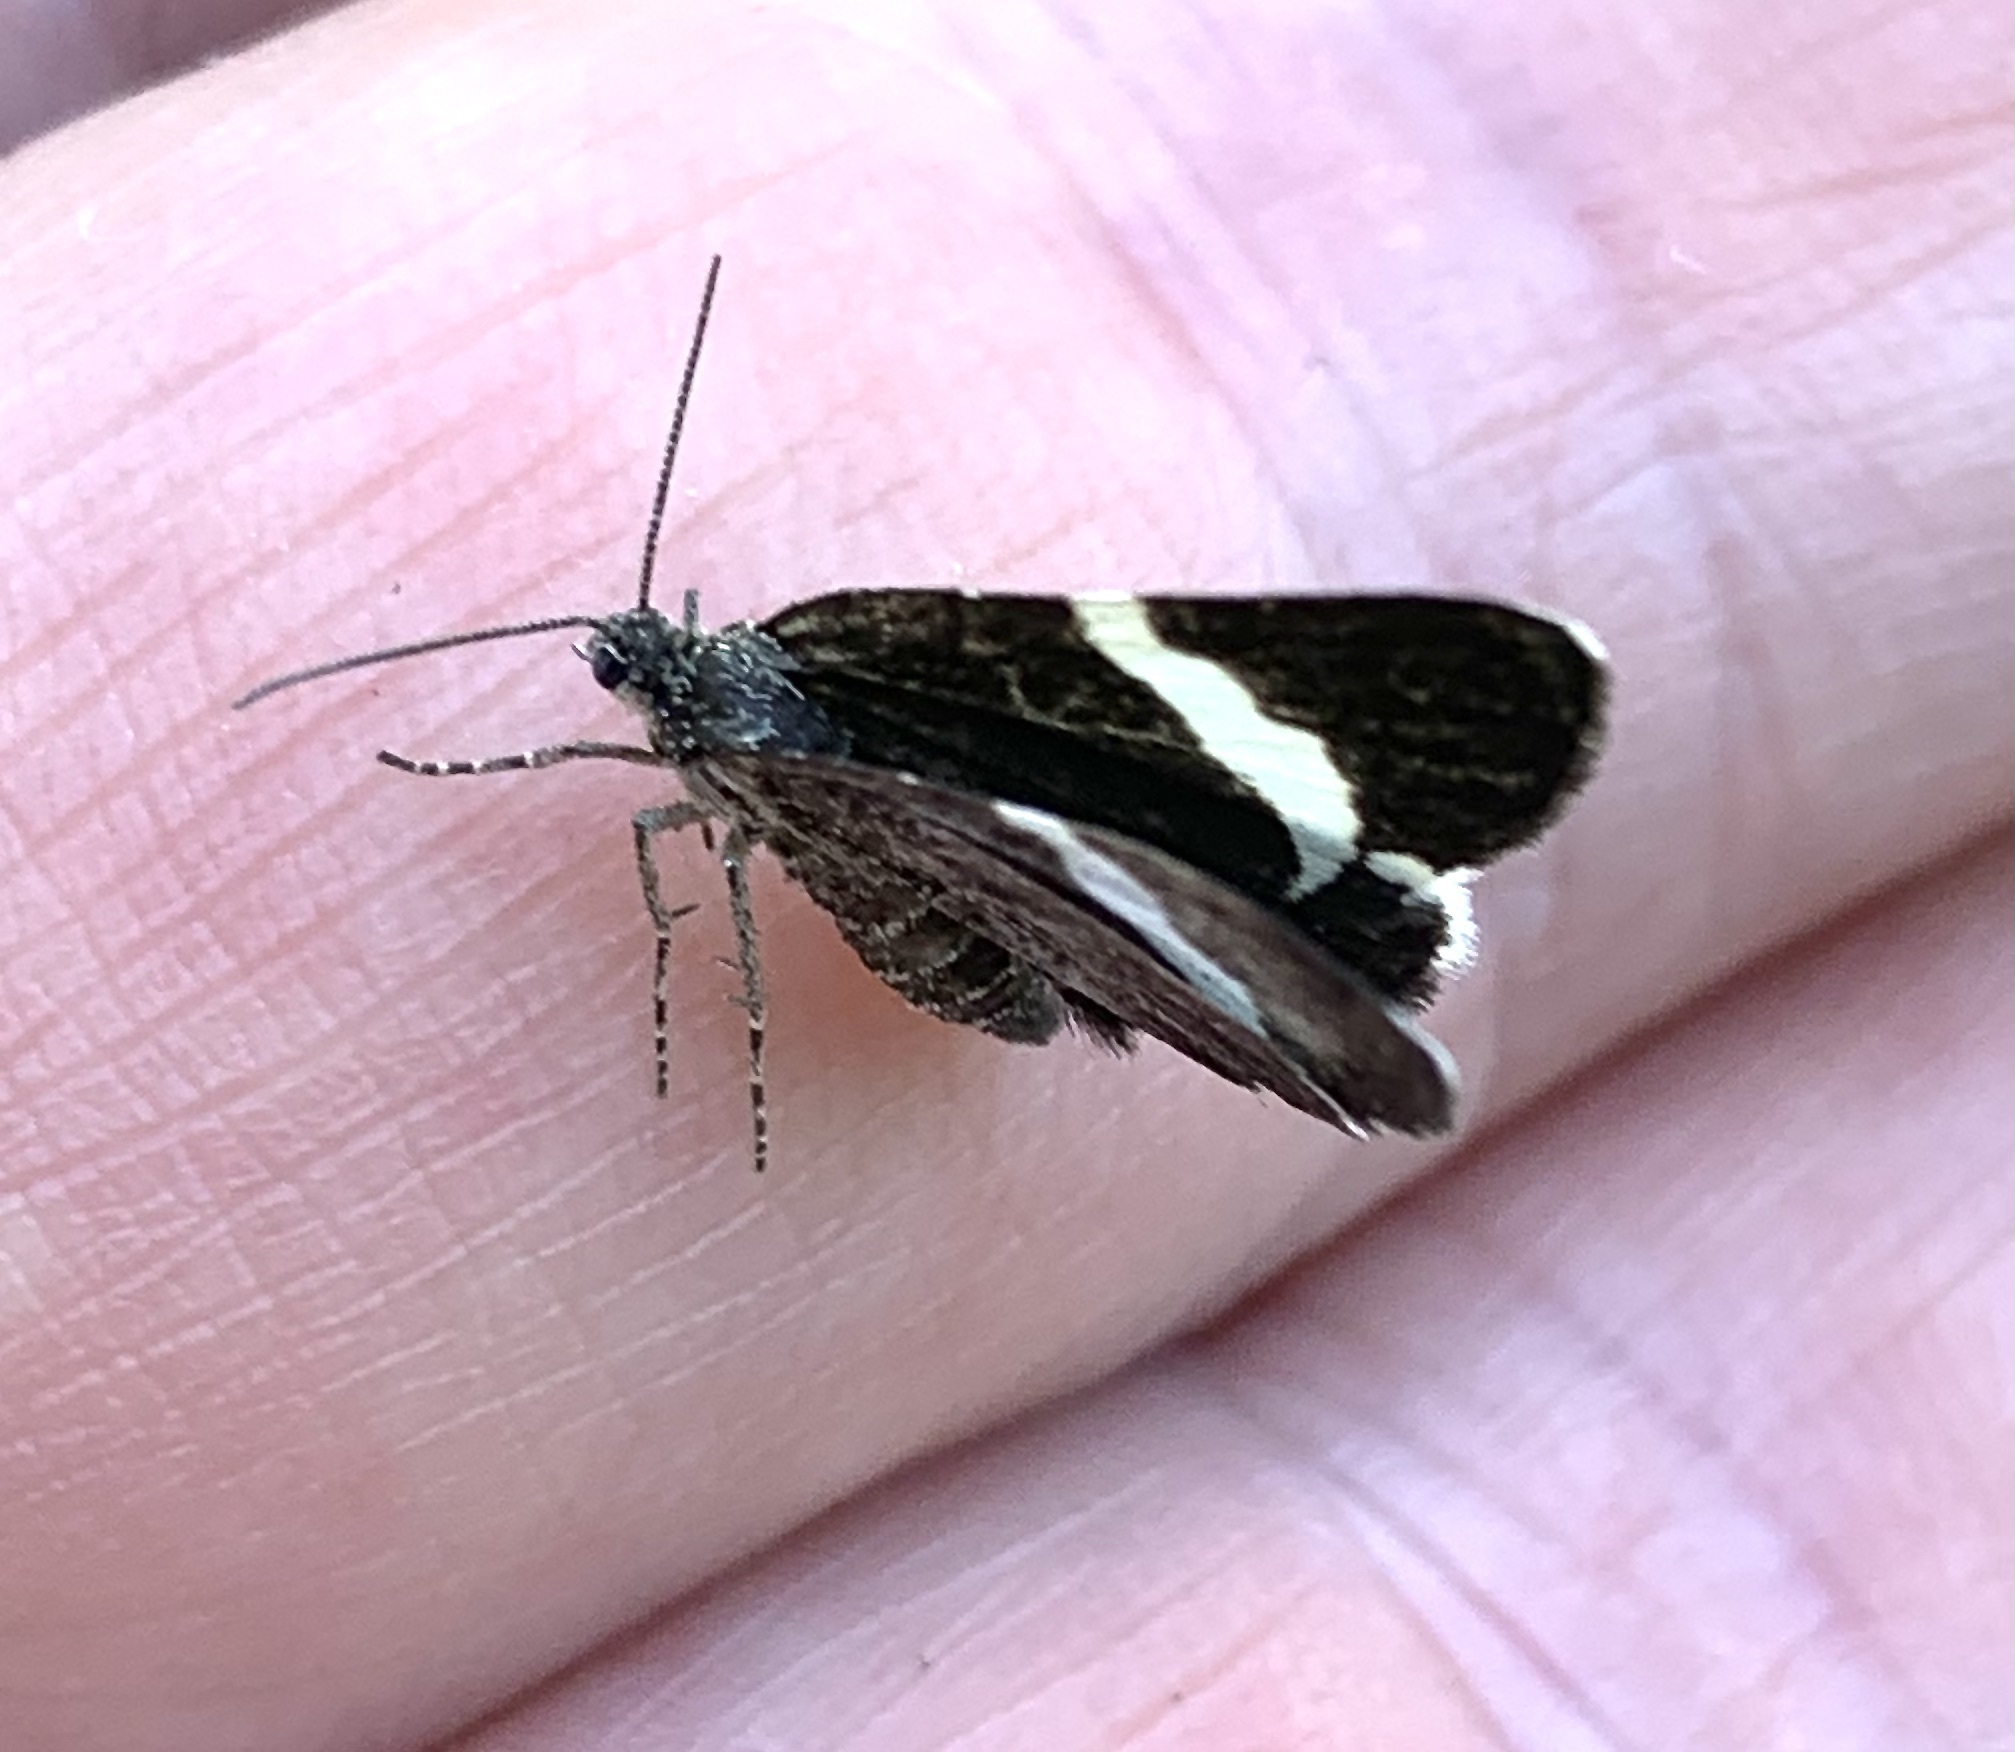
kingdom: Animalia
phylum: Arthropoda
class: Insecta
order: Lepidoptera
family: Geometridae
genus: Trichodezia
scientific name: Trichodezia albovittata
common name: White striped black
